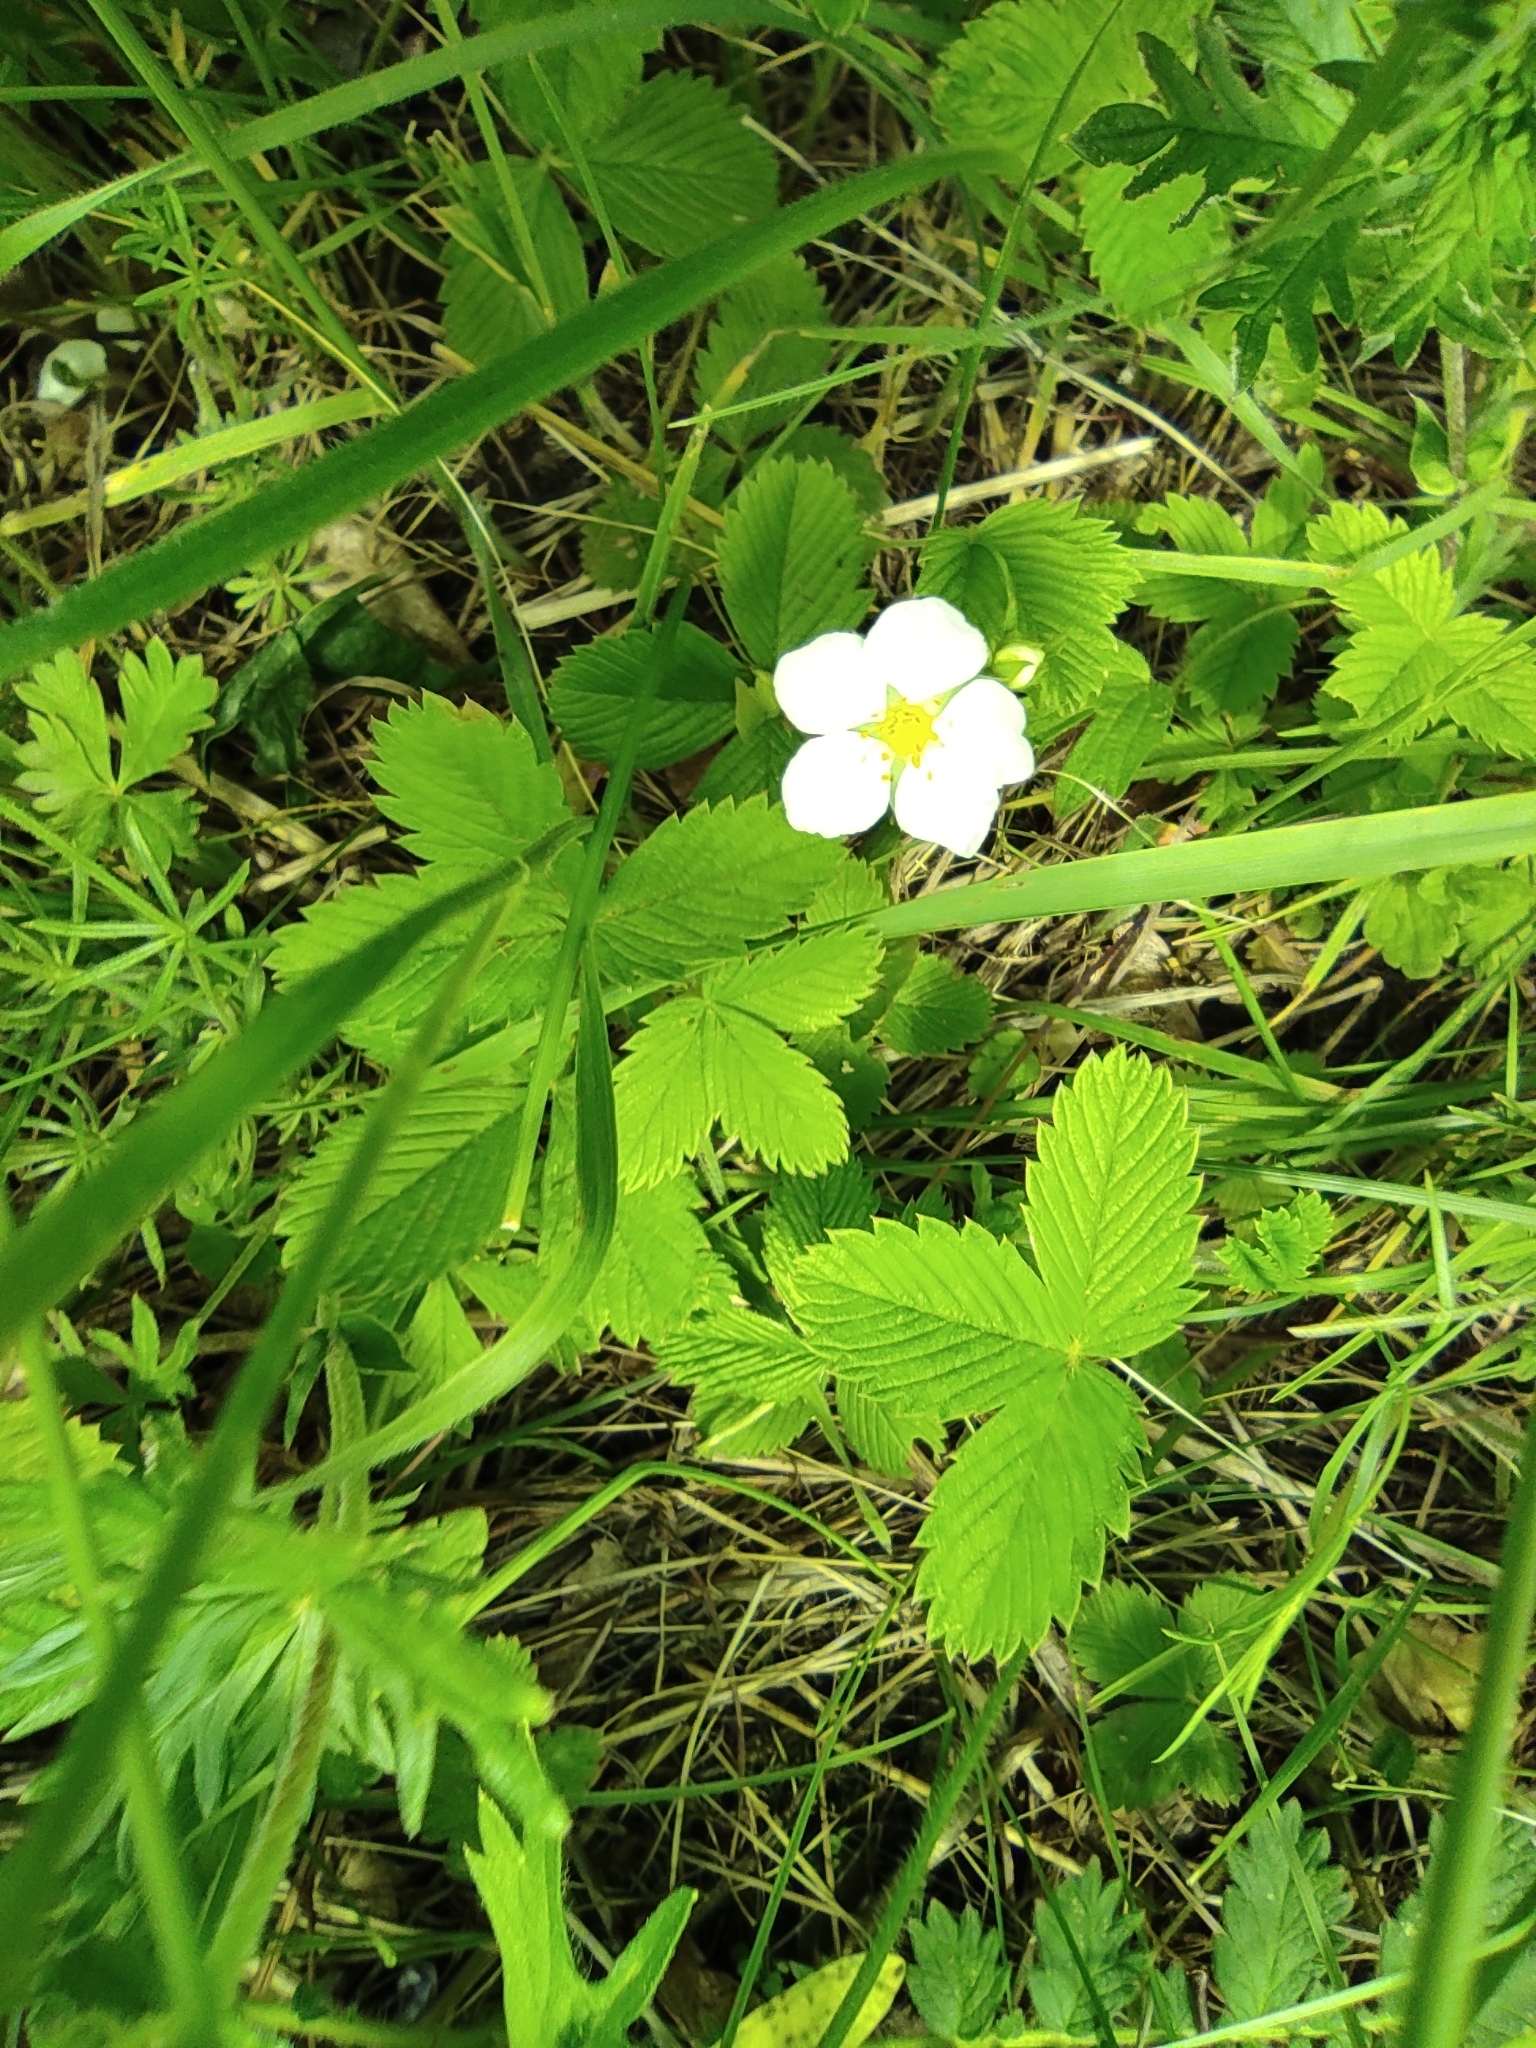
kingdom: Plantae
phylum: Tracheophyta
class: Magnoliopsida
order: Rosales
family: Rosaceae
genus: Fragaria
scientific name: Fragaria viridis
